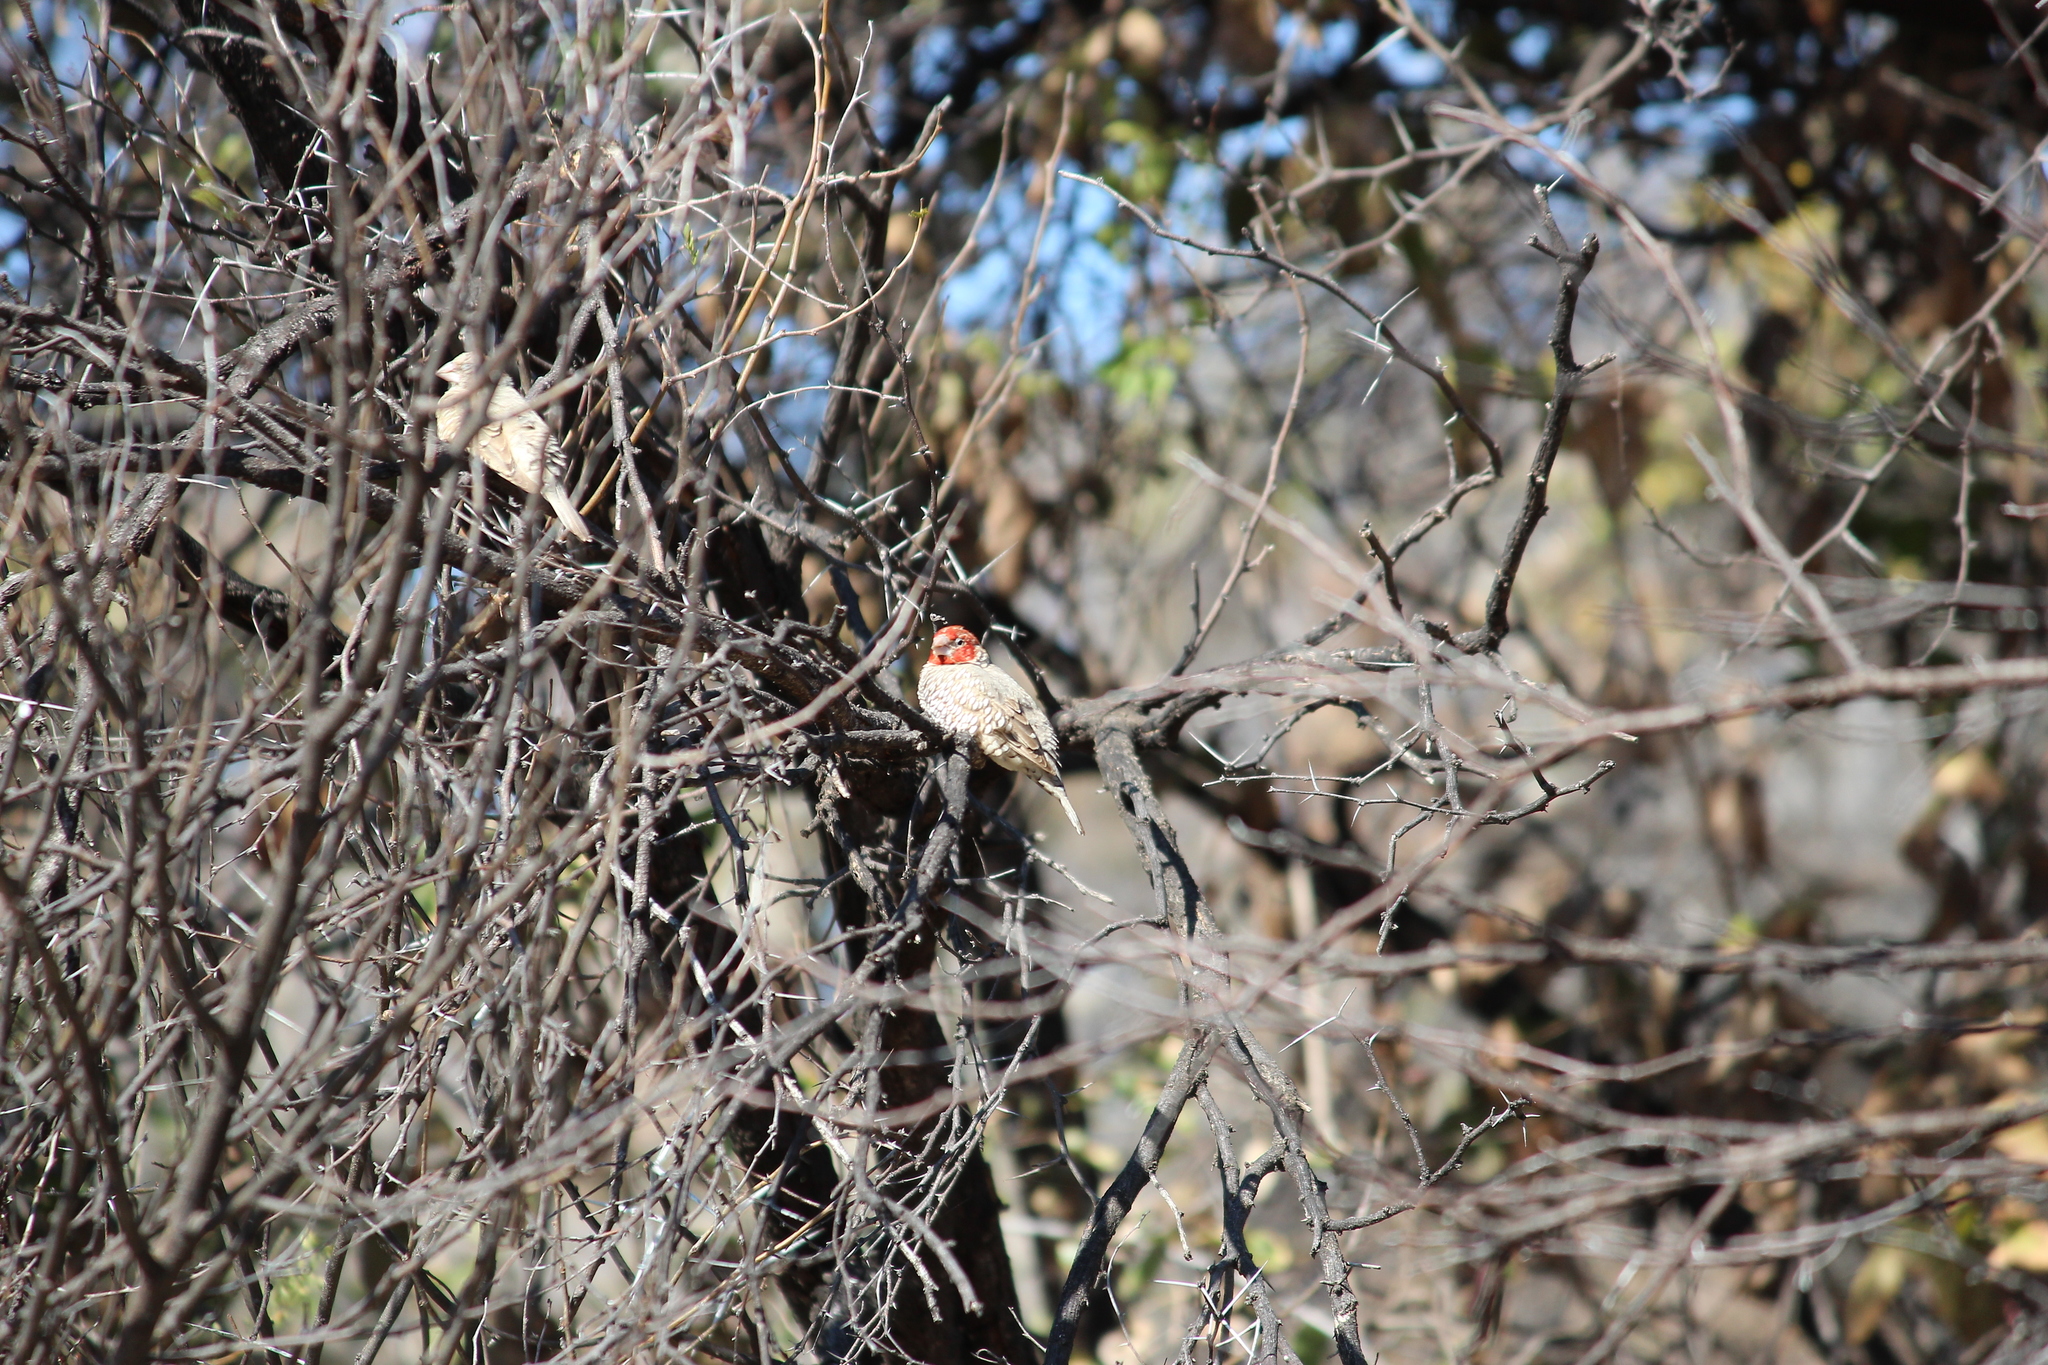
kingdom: Animalia
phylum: Chordata
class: Aves
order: Passeriformes
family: Estrildidae
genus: Amadina
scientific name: Amadina erythrocephala
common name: Red-headed finch
